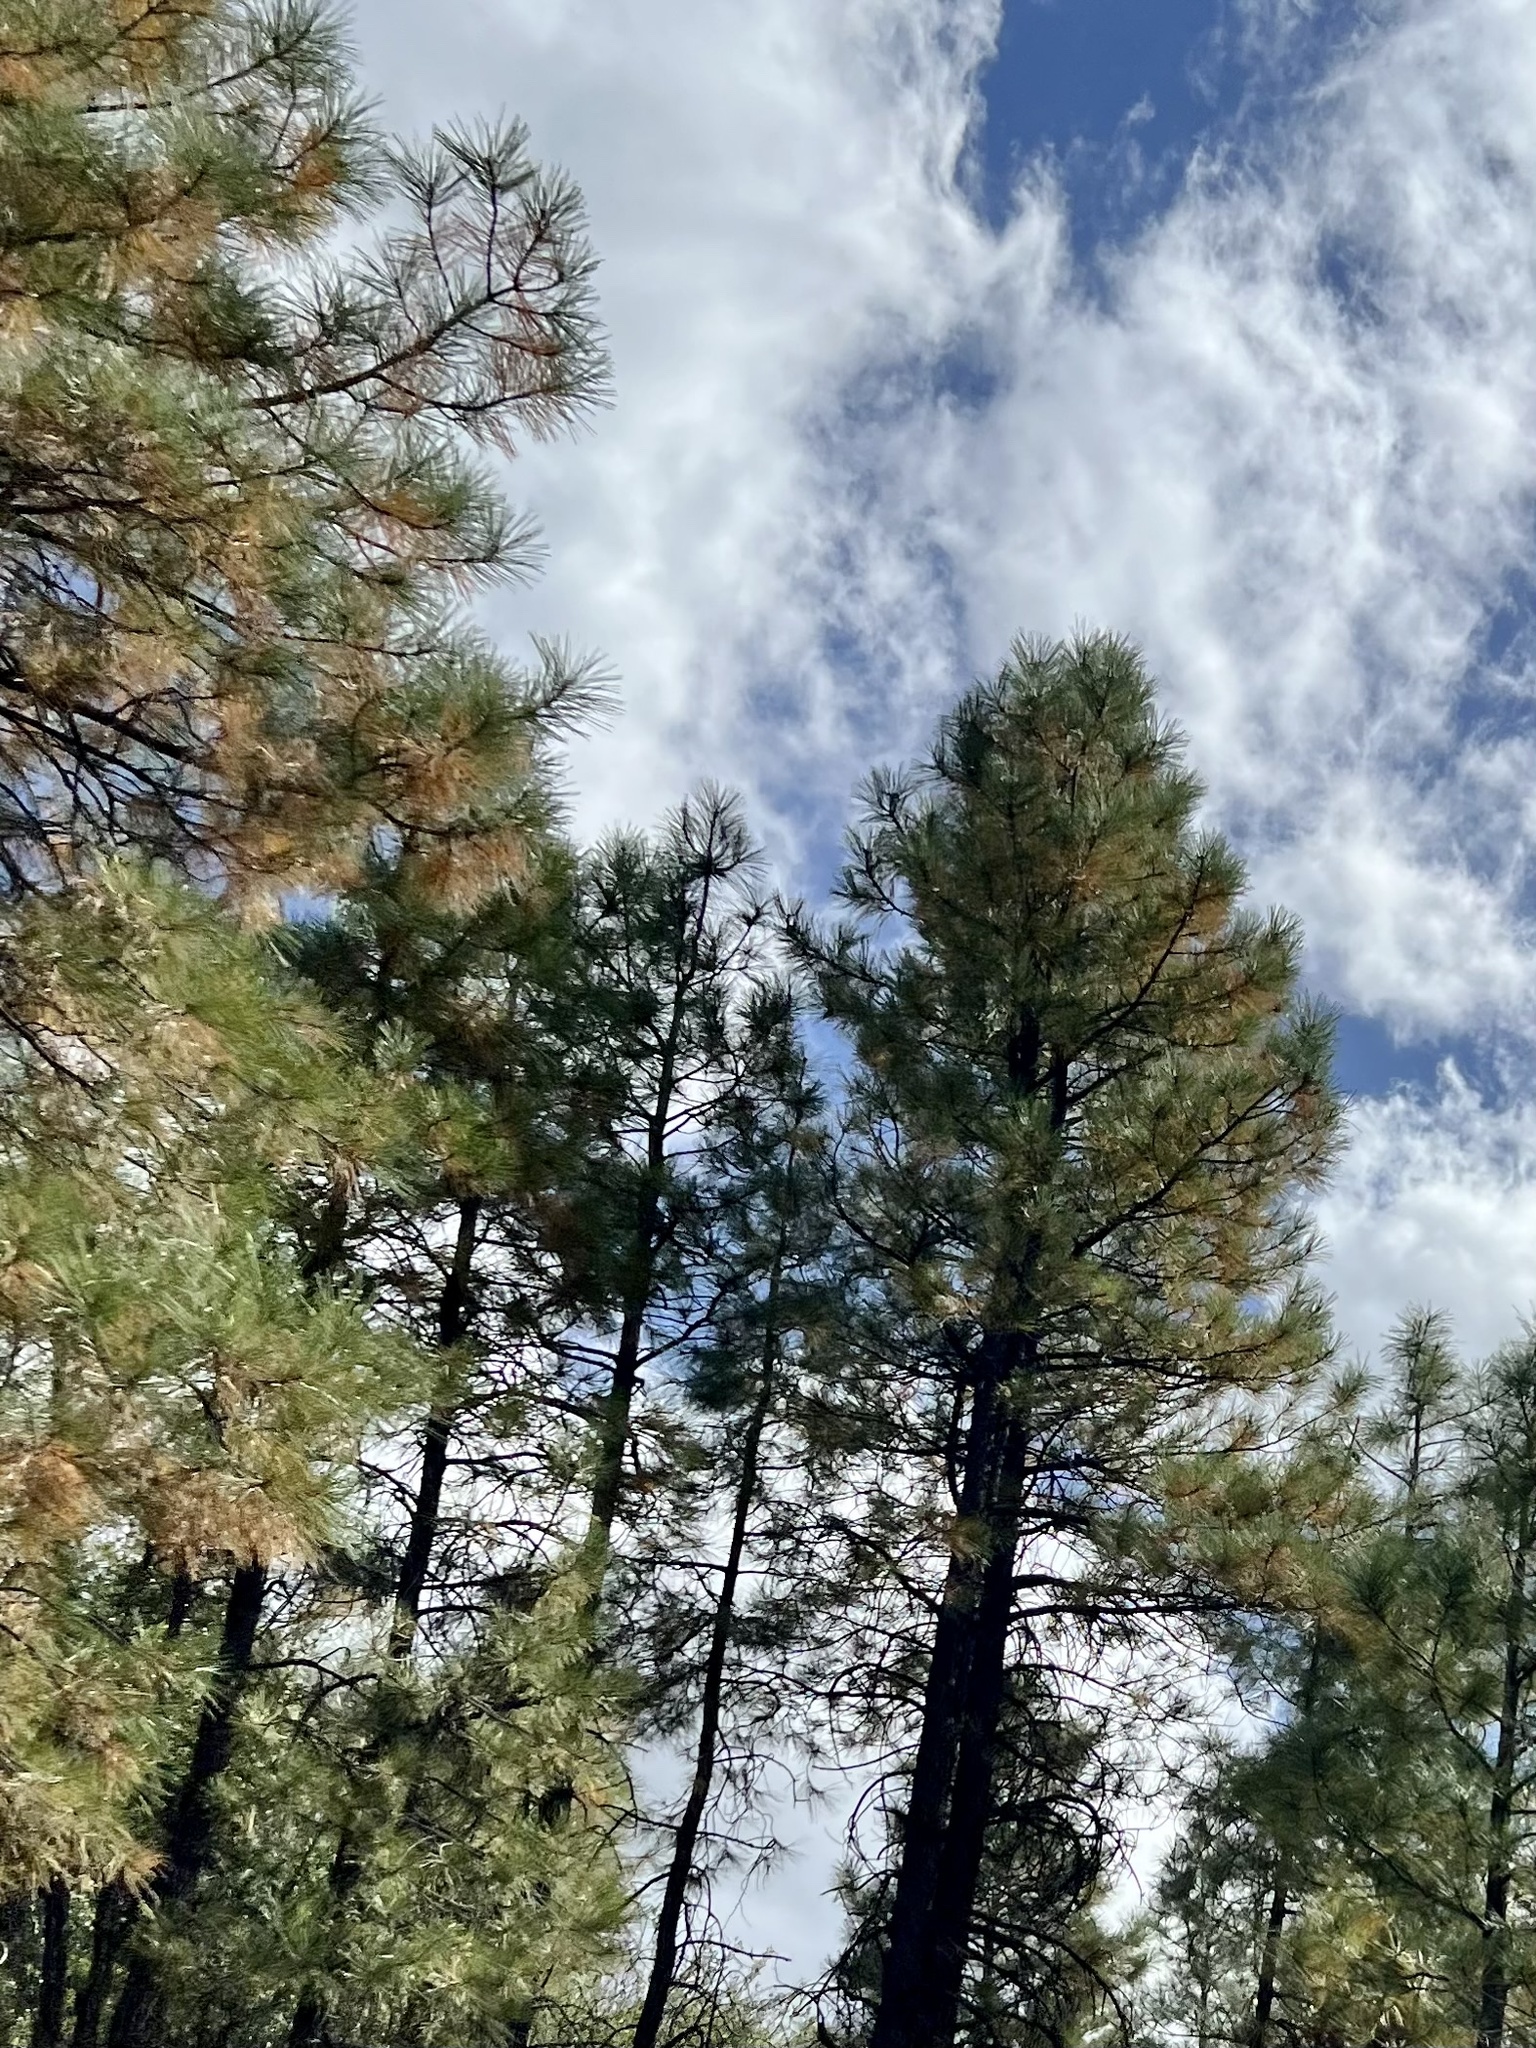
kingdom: Plantae
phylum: Tracheophyta
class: Pinopsida
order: Pinales
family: Pinaceae
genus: Pinus
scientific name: Pinus ponderosa
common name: Western yellow-pine
